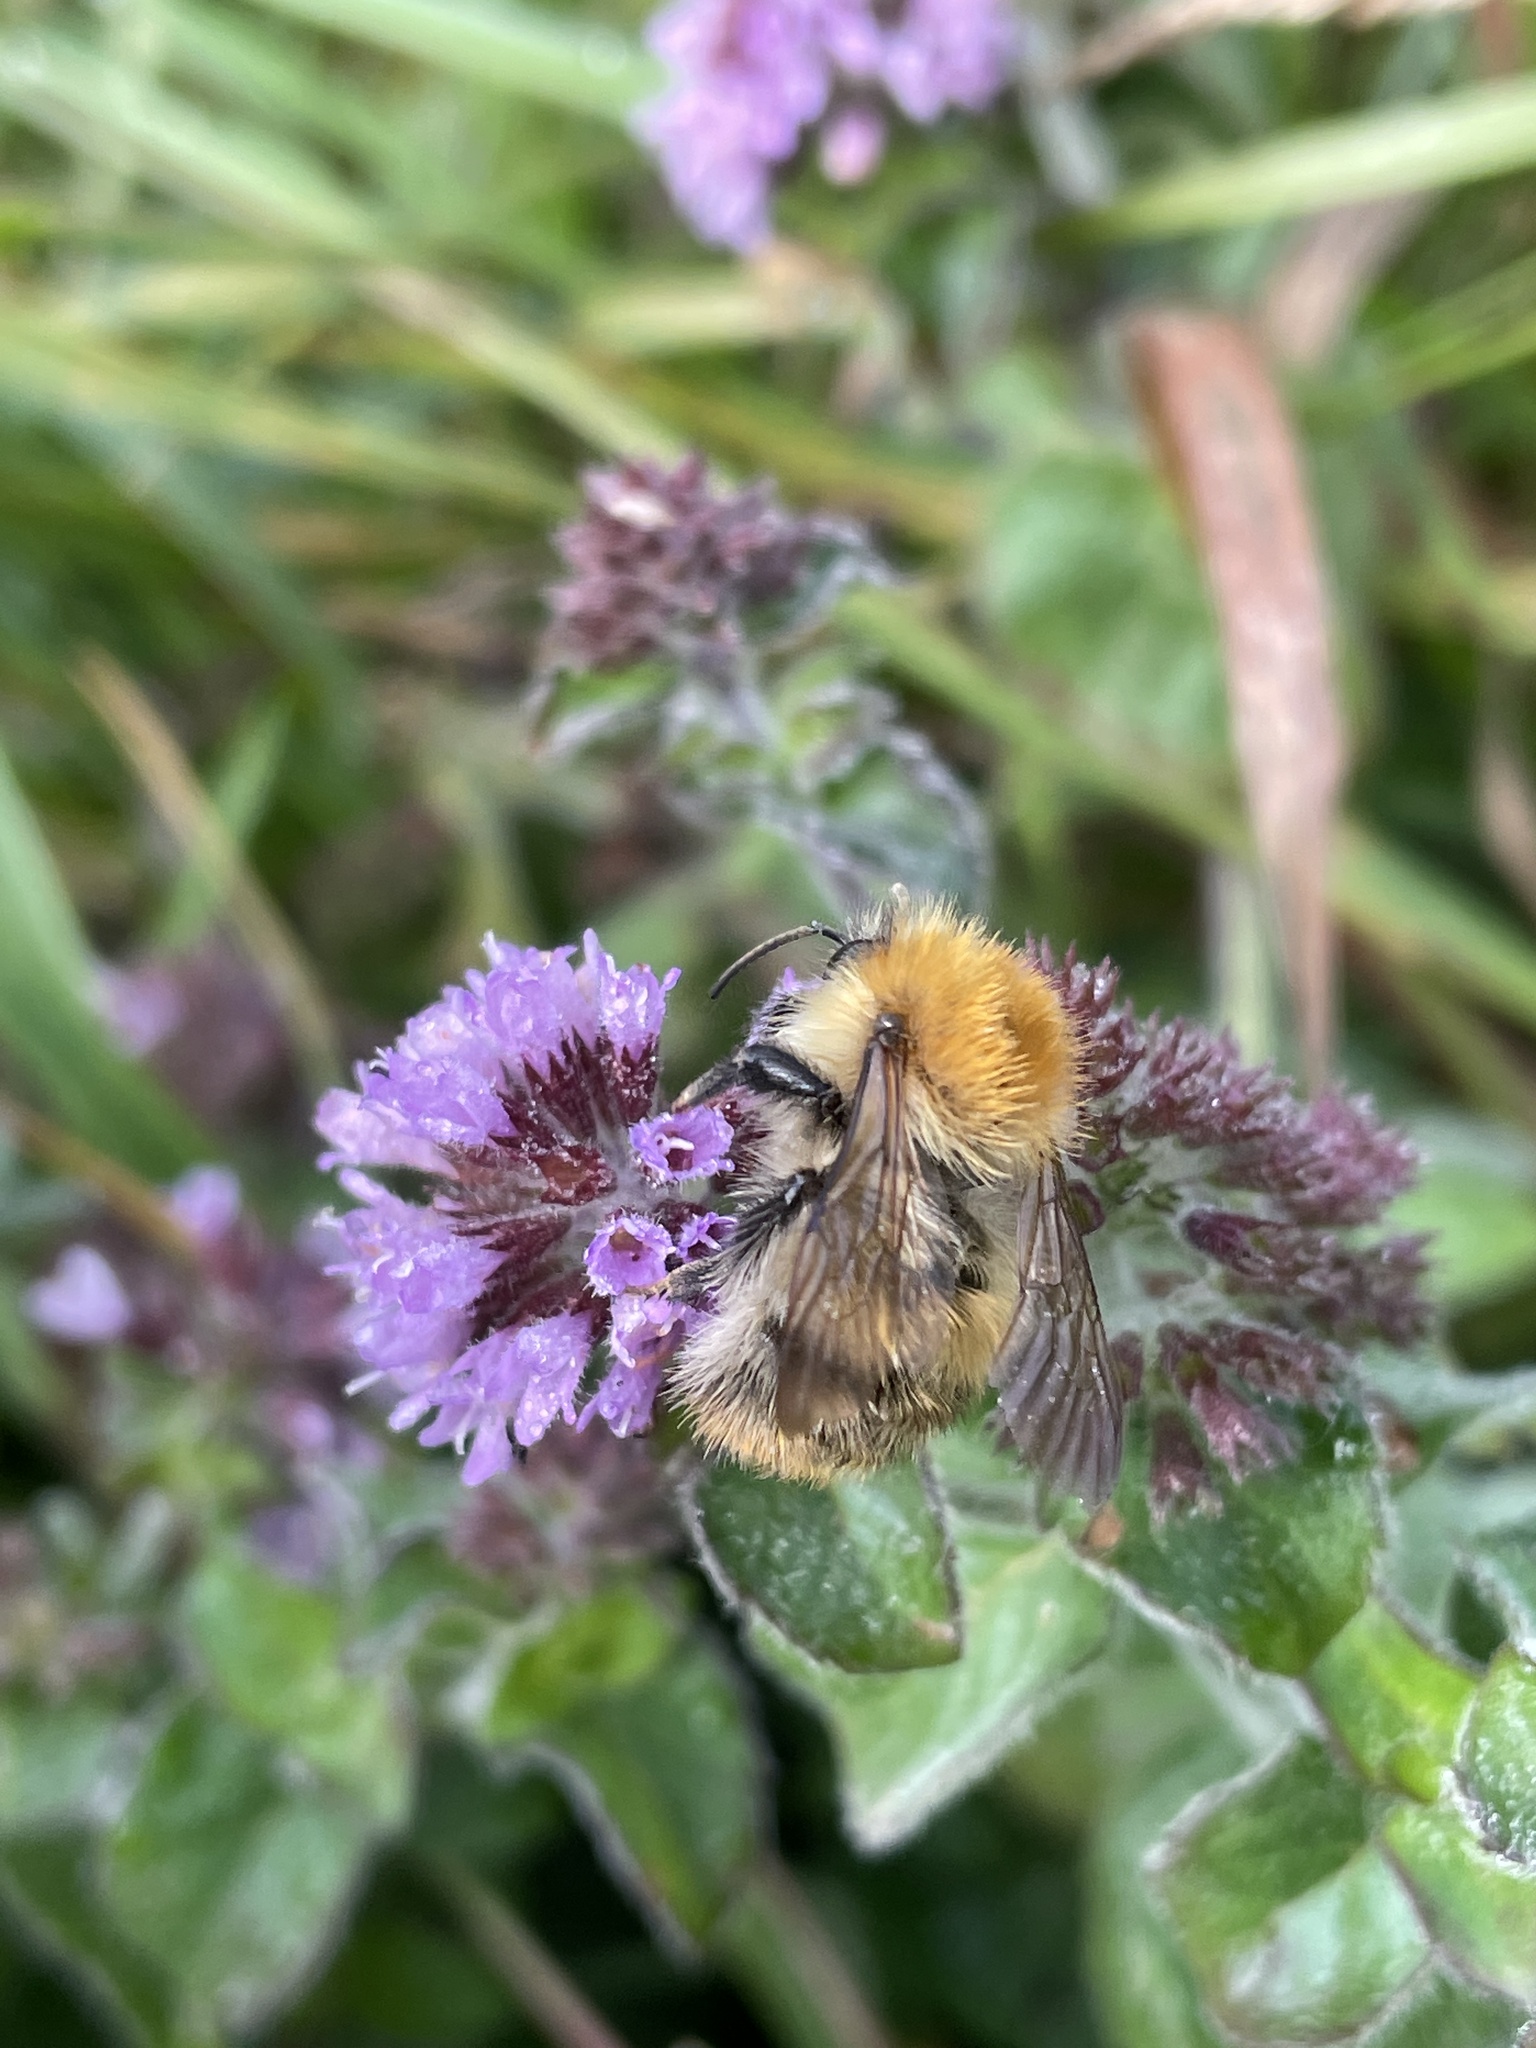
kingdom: Animalia
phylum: Arthropoda
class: Insecta
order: Hymenoptera
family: Apidae
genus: Bombus
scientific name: Bombus pascuorum
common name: Common carder bee
